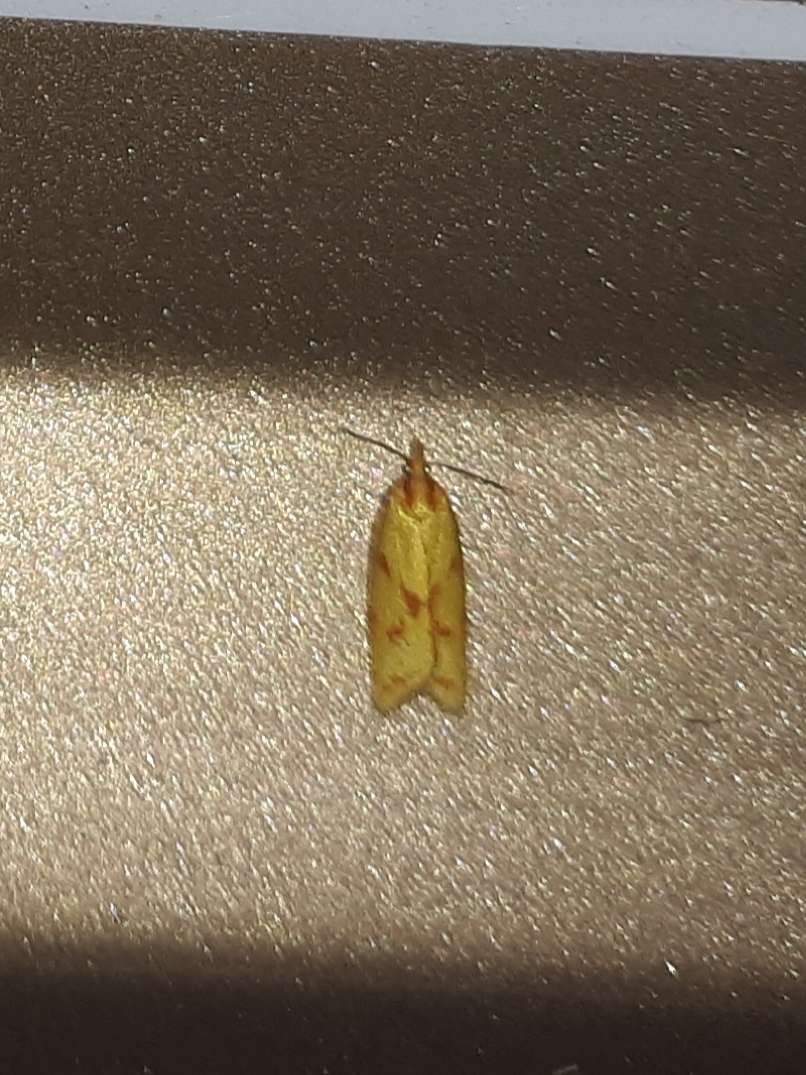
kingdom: Animalia
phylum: Arthropoda
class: Insecta
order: Lepidoptera
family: Tortricidae
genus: Sparganothis
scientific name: Sparganothis sulfureana
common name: Sparganothis fruitworm moth
